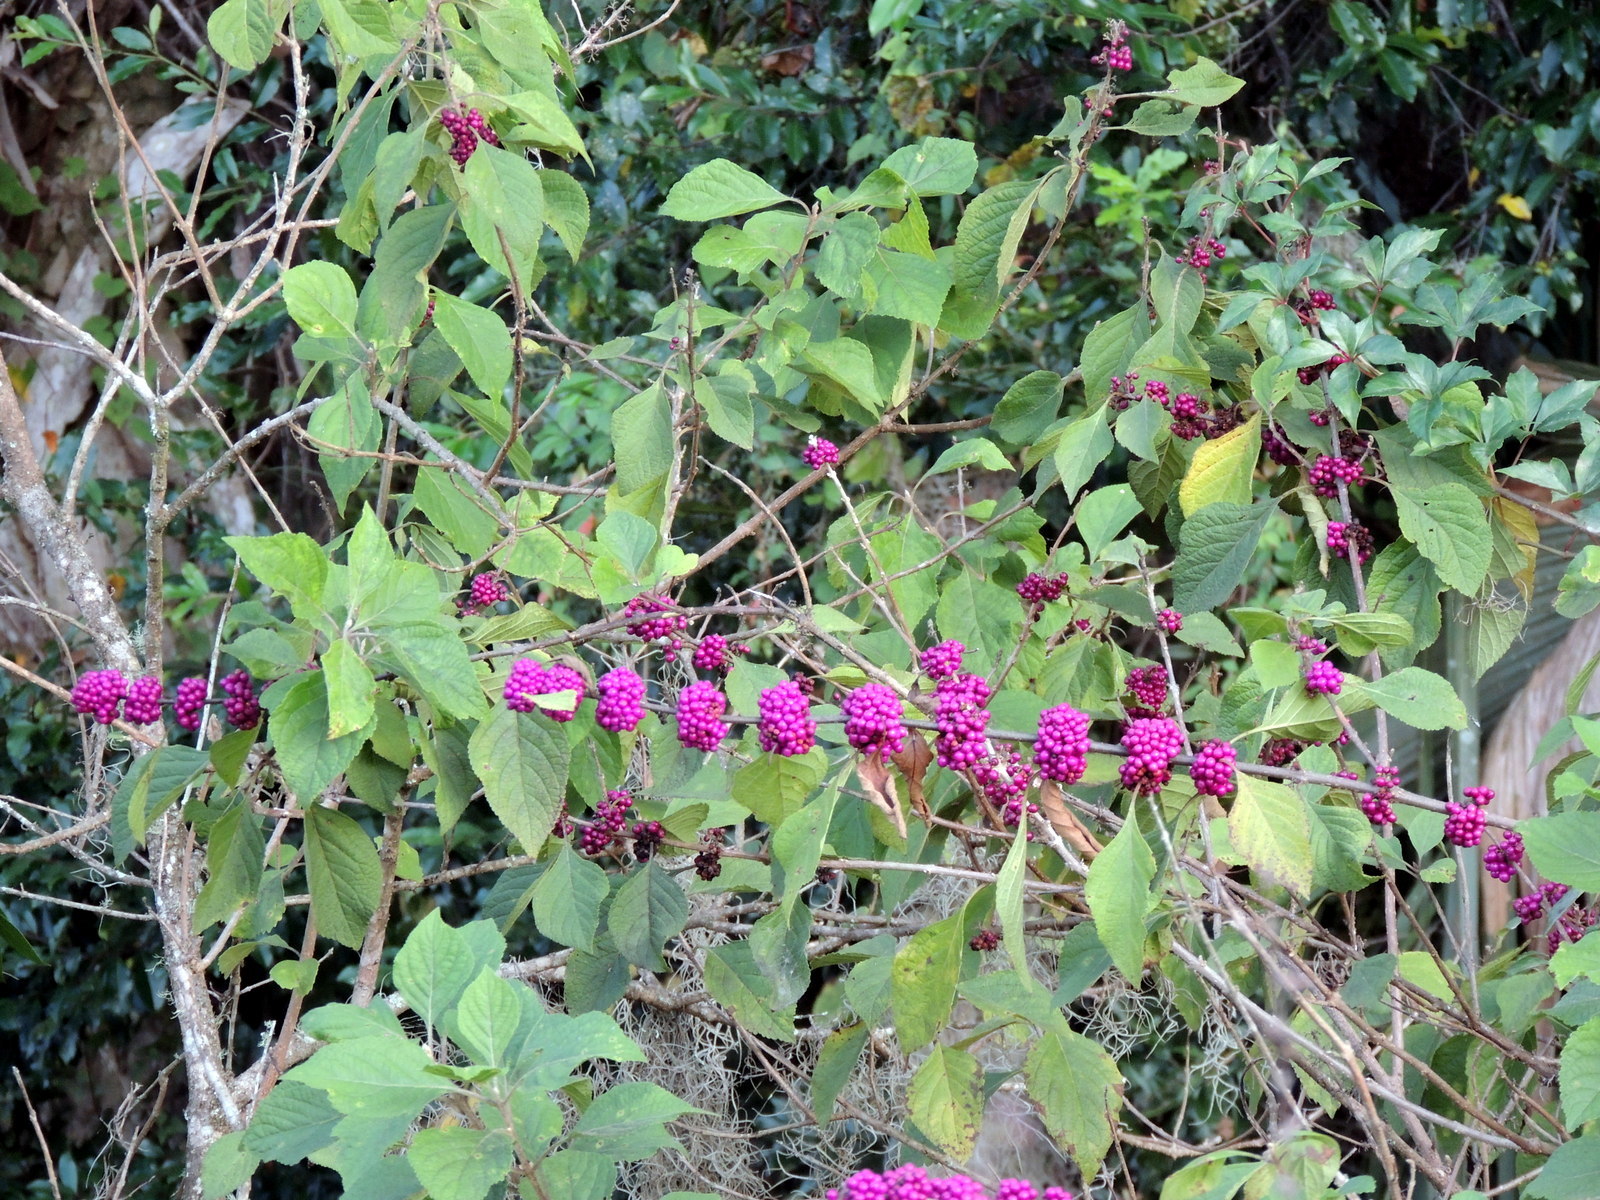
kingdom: Plantae
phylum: Tracheophyta
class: Magnoliopsida
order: Lamiales
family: Lamiaceae
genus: Callicarpa
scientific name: Callicarpa americana
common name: American beautyberry
